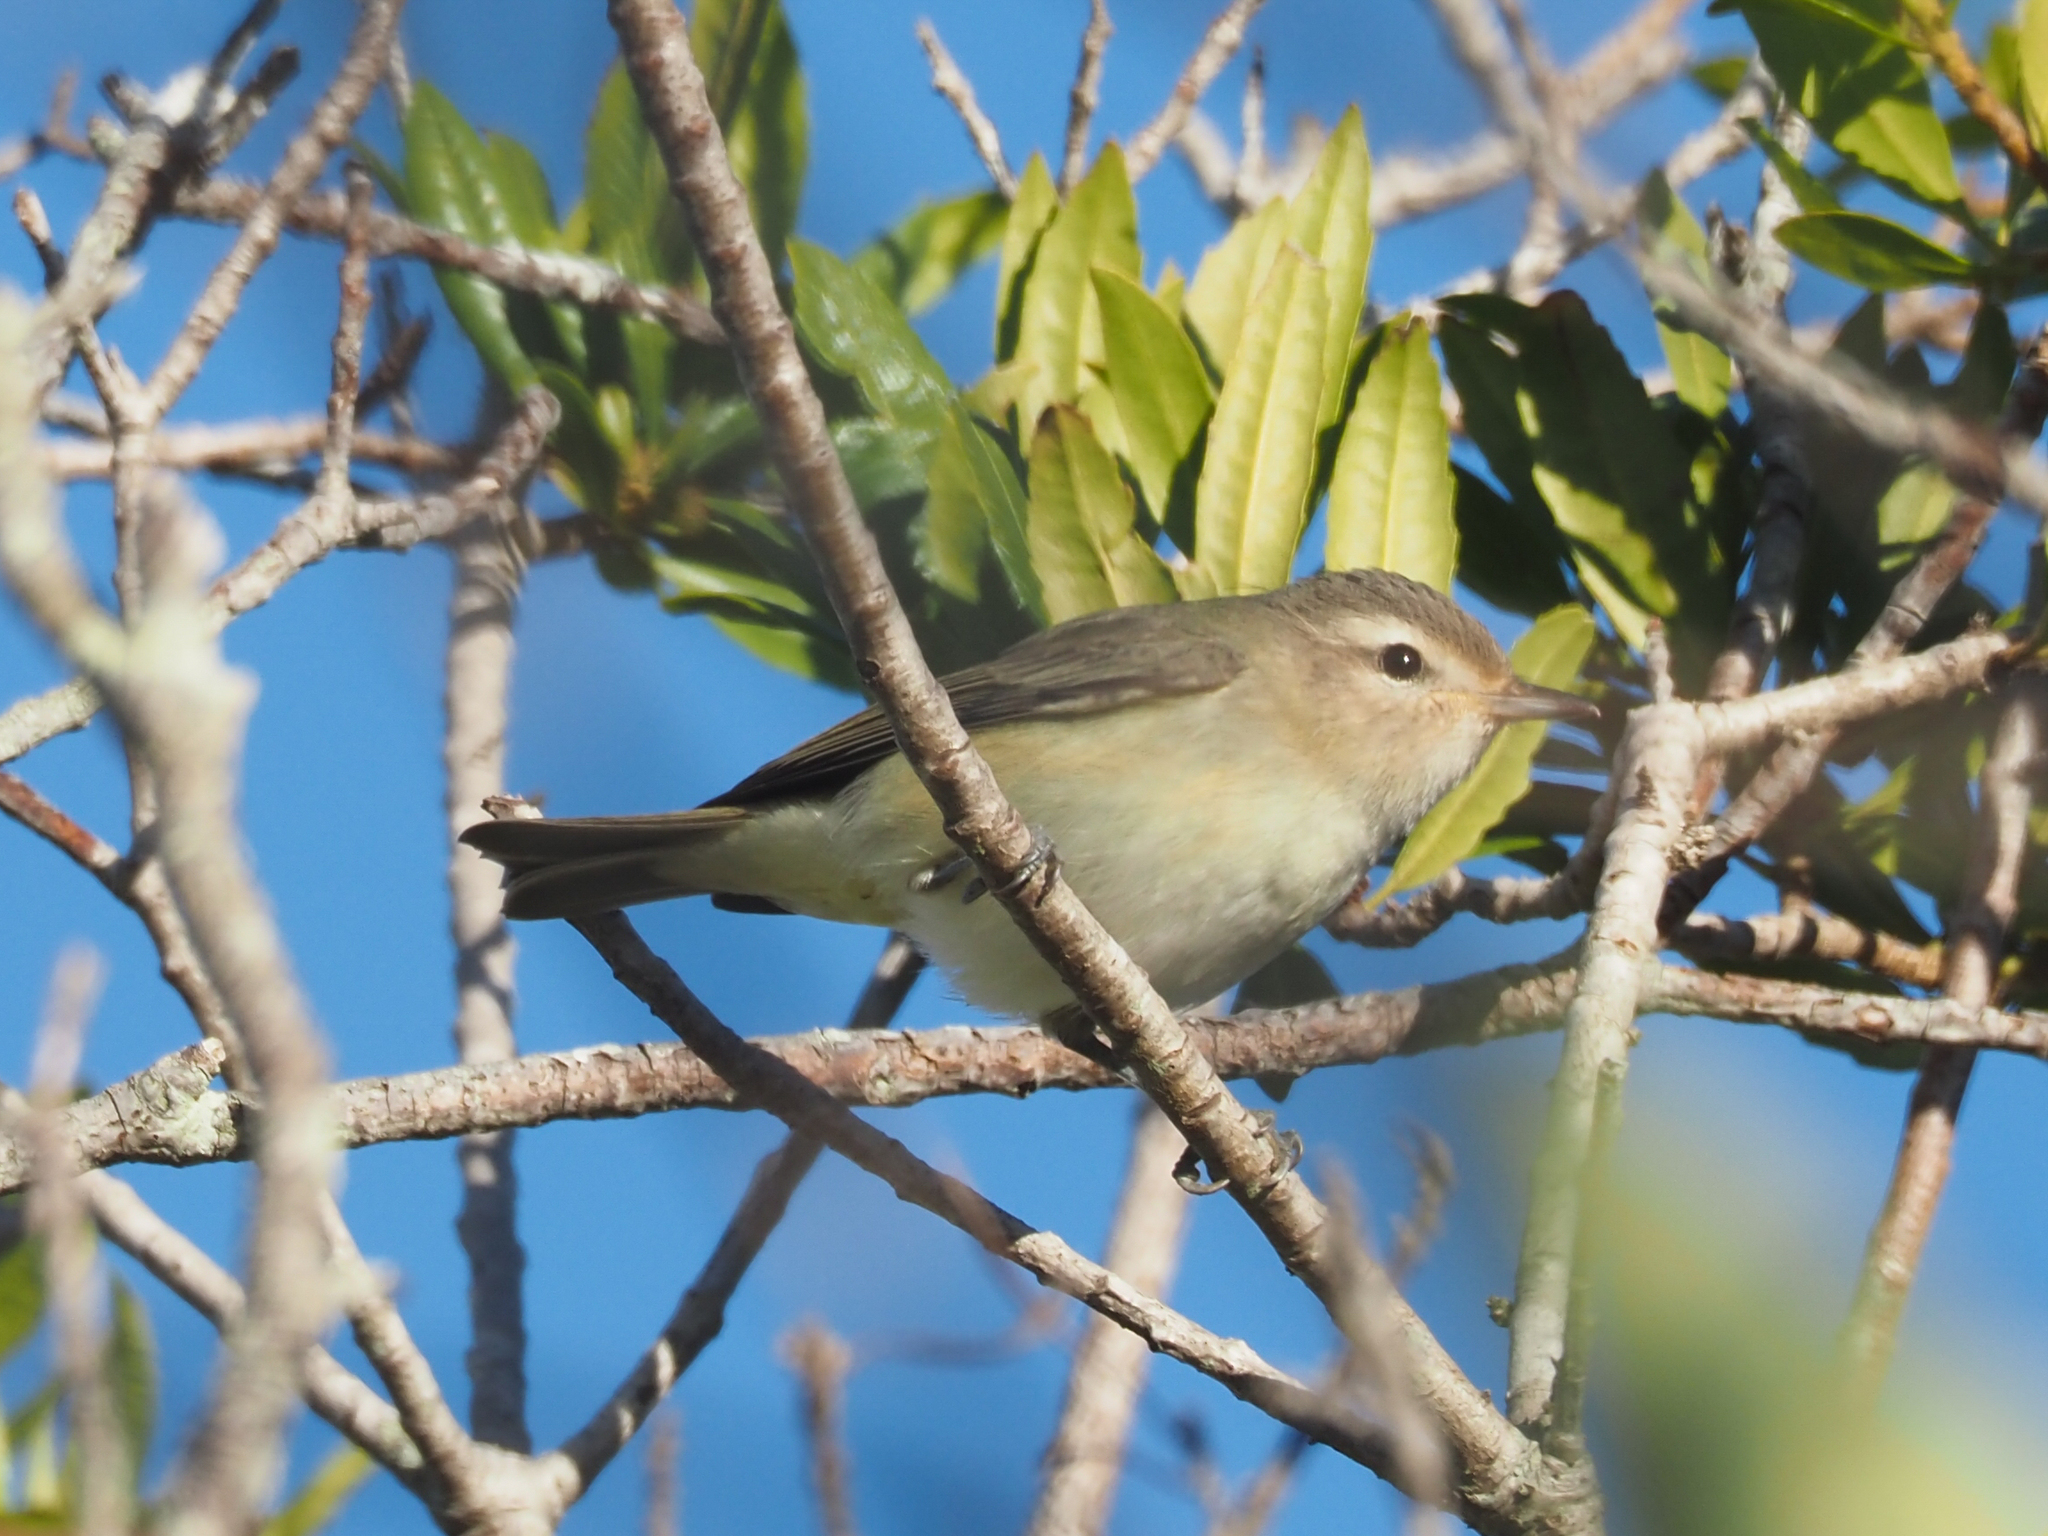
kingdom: Animalia
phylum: Chordata
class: Aves
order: Passeriformes
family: Vireonidae
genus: Vireo
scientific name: Vireo gilvus
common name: Warbling vireo
